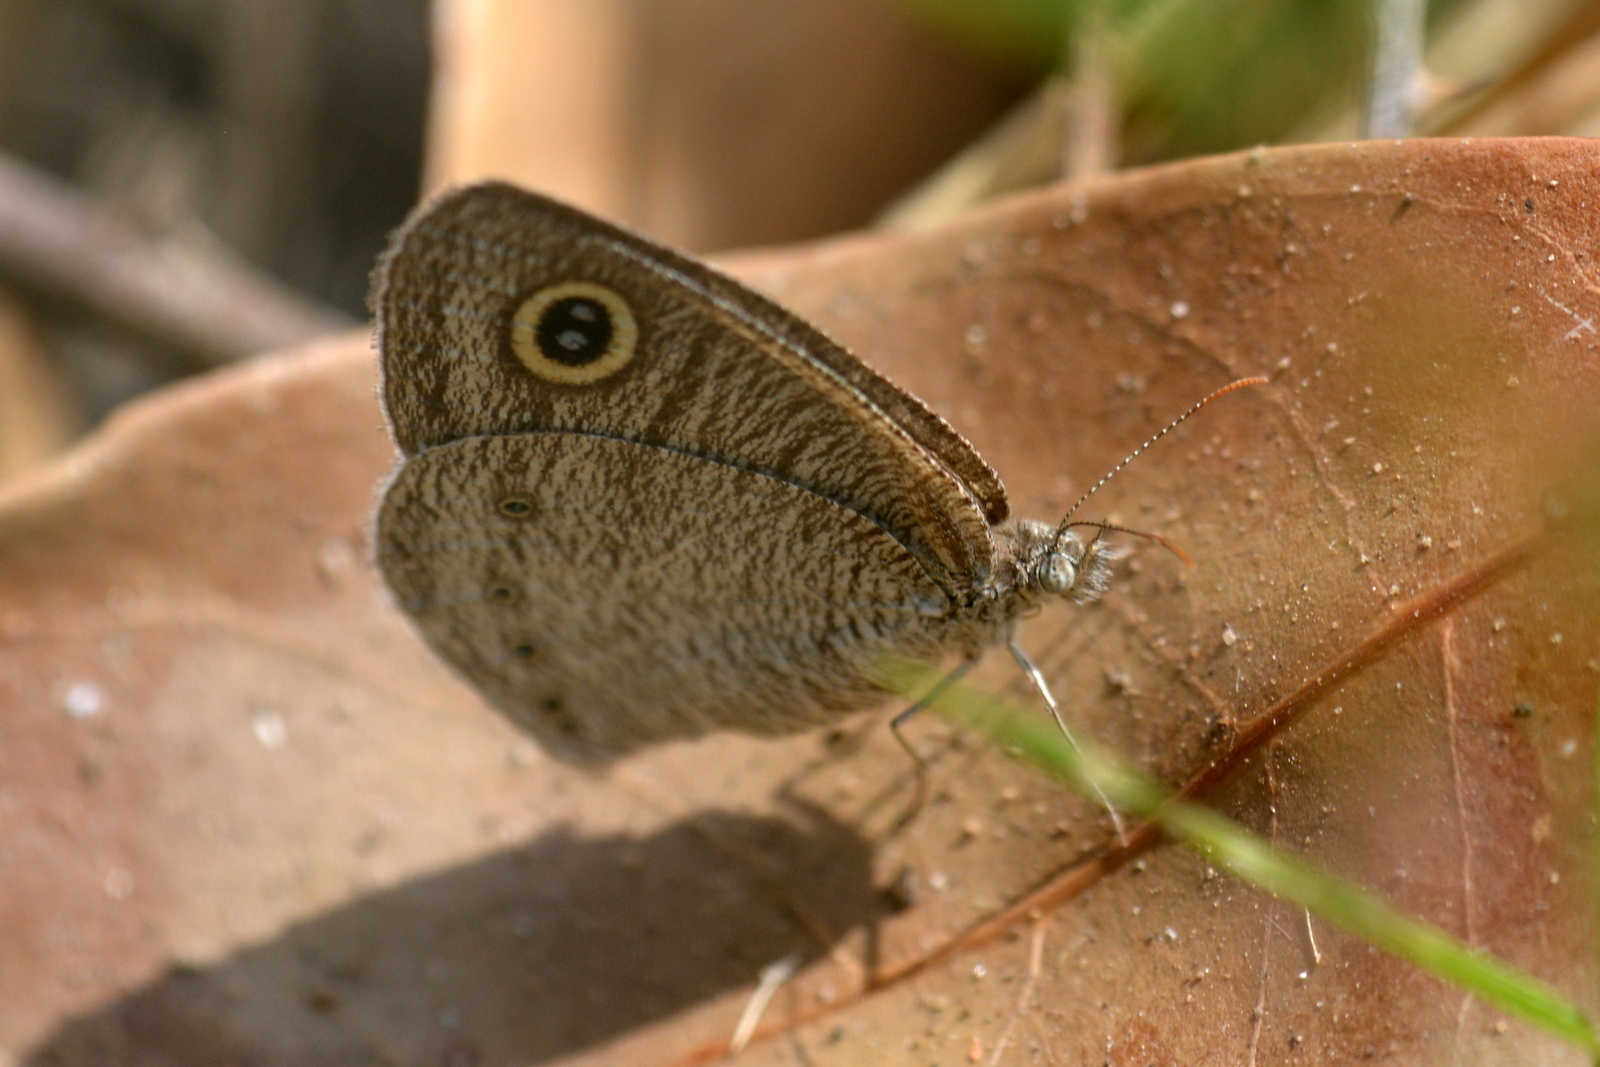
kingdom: Animalia
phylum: Arthropoda
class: Insecta
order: Lepidoptera
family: Nymphalidae
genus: Ypthima
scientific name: Ypthima avanta
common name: Jewel five-ring
